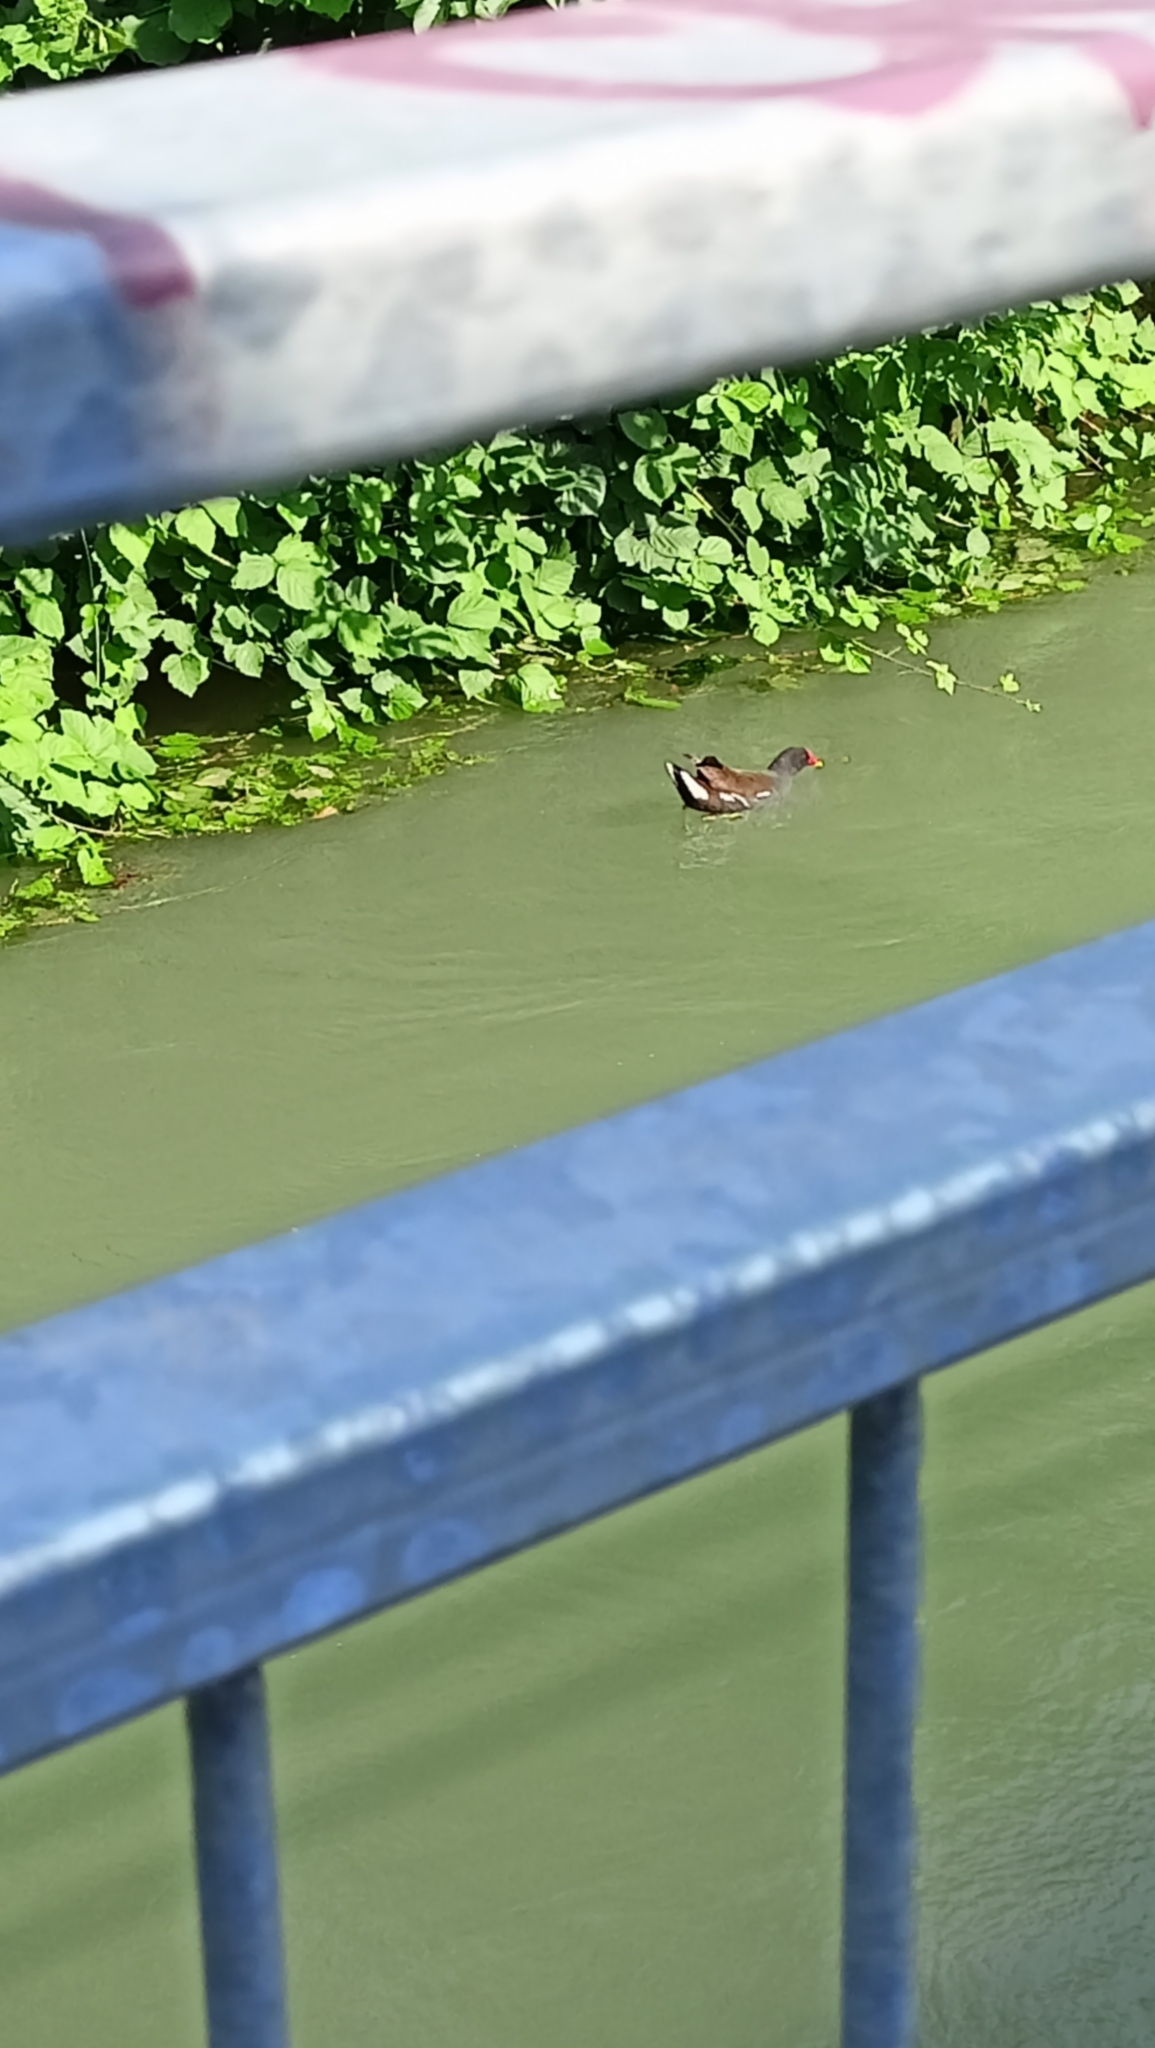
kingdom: Animalia
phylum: Chordata
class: Aves
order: Gruiformes
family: Rallidae
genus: Gallinula
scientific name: Gallinula chloropus
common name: Common moorhen
